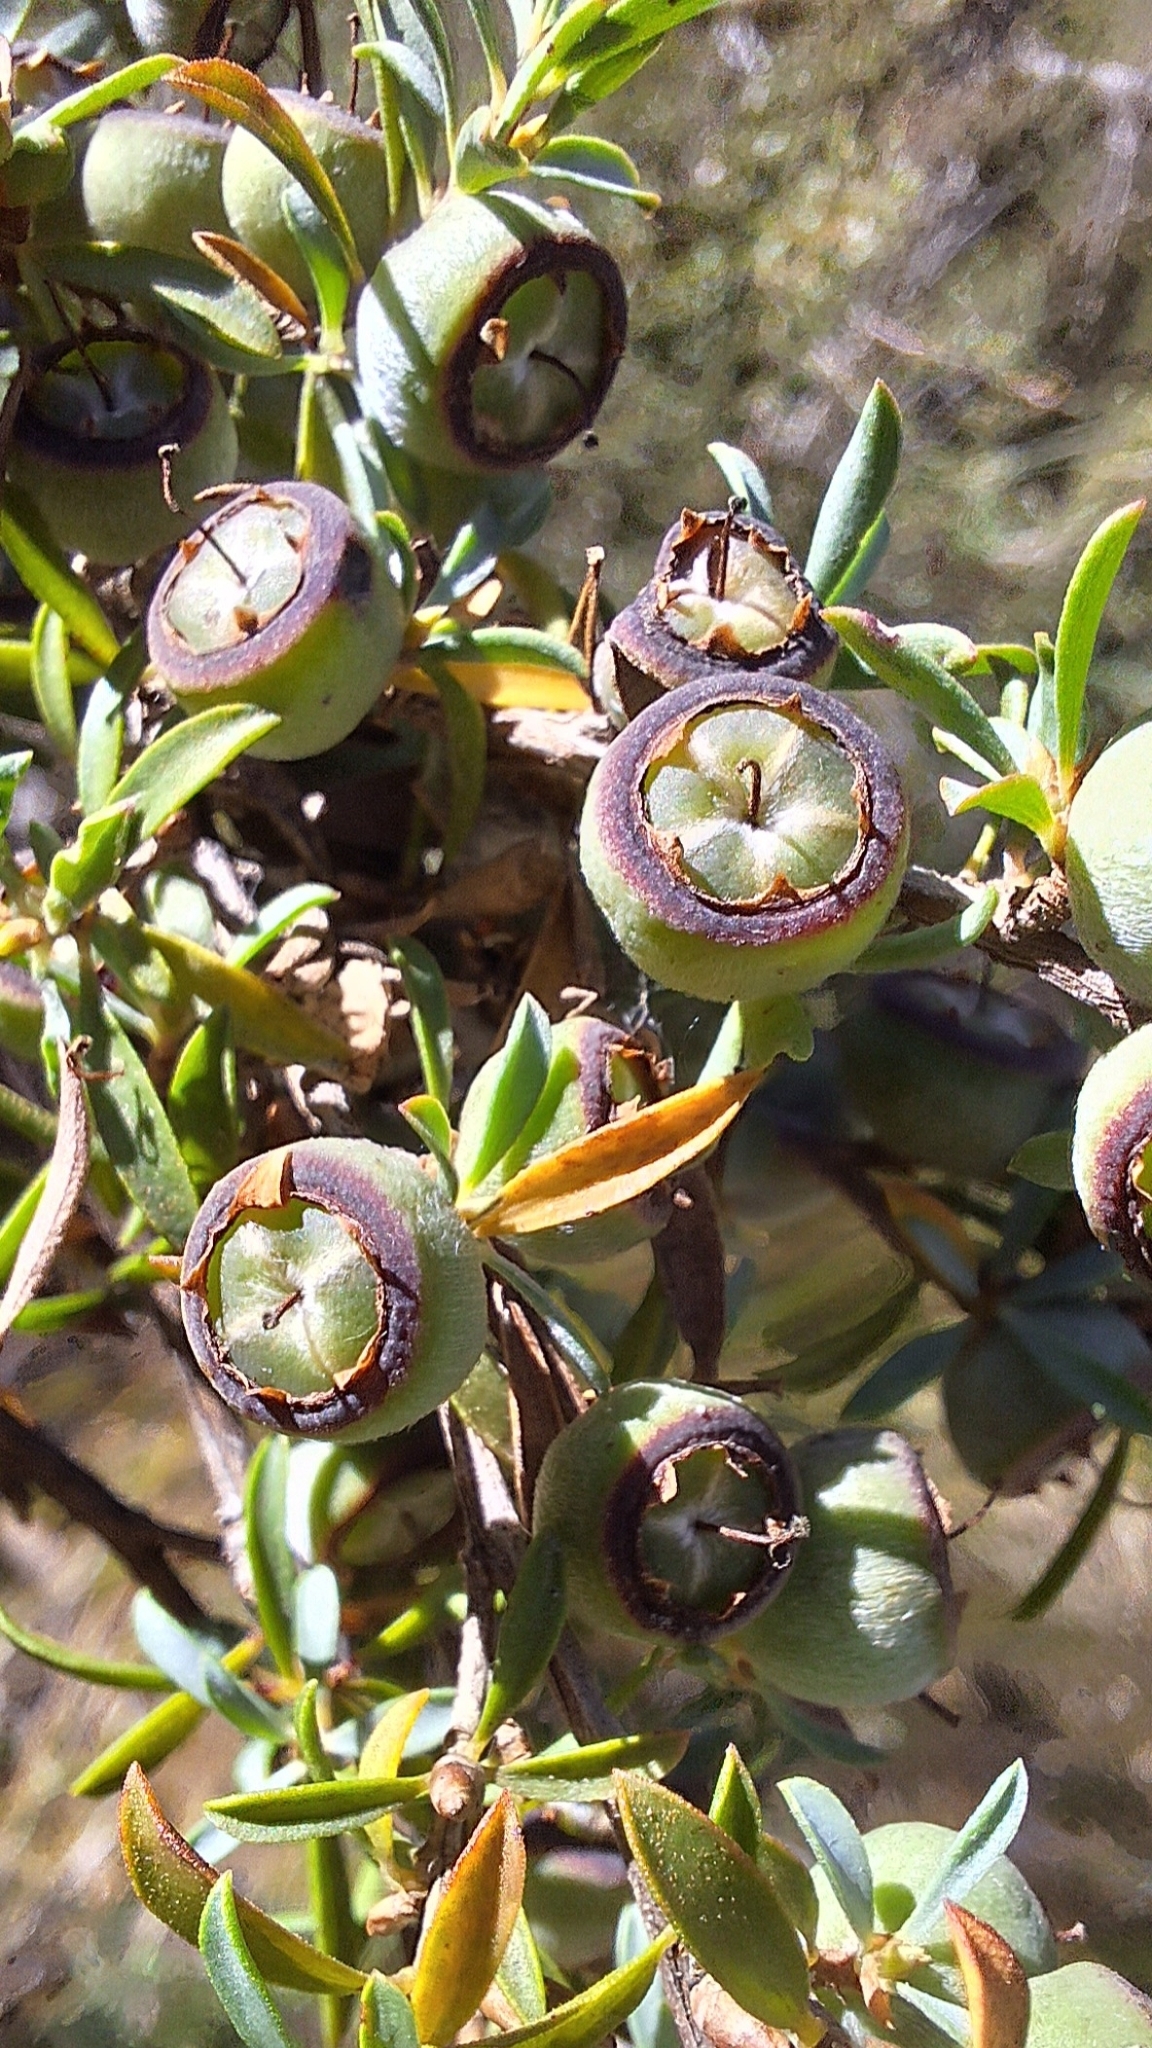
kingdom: Plantae
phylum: Tracheophyta
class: Magnoliopsida
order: Myrtales
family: Myrtaceae
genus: Leptospermum
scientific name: Leptospermum myrsinoides
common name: Heath teatree
